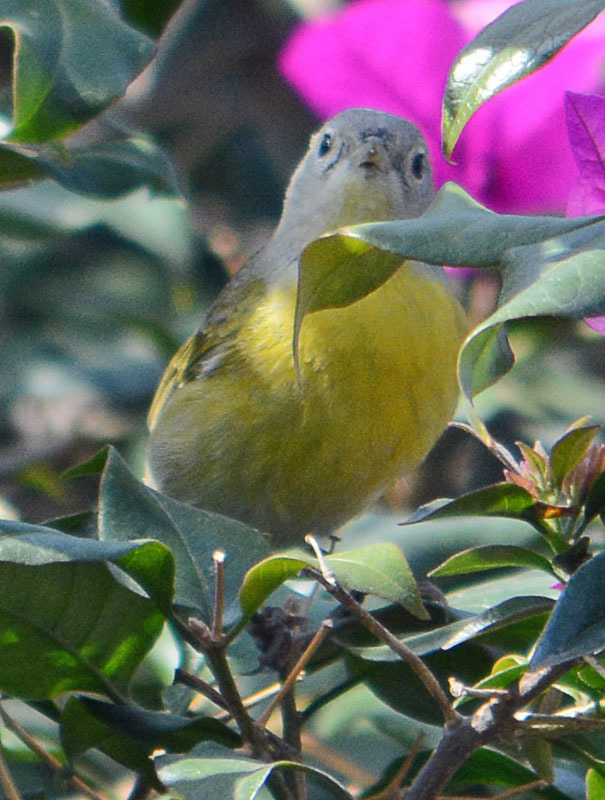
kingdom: Animalia
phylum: Chordata
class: Aves
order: Passeriformes
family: Parulidae
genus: Leiothlypis
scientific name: Leiothlypis ruficapilla
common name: Nashville warbler
